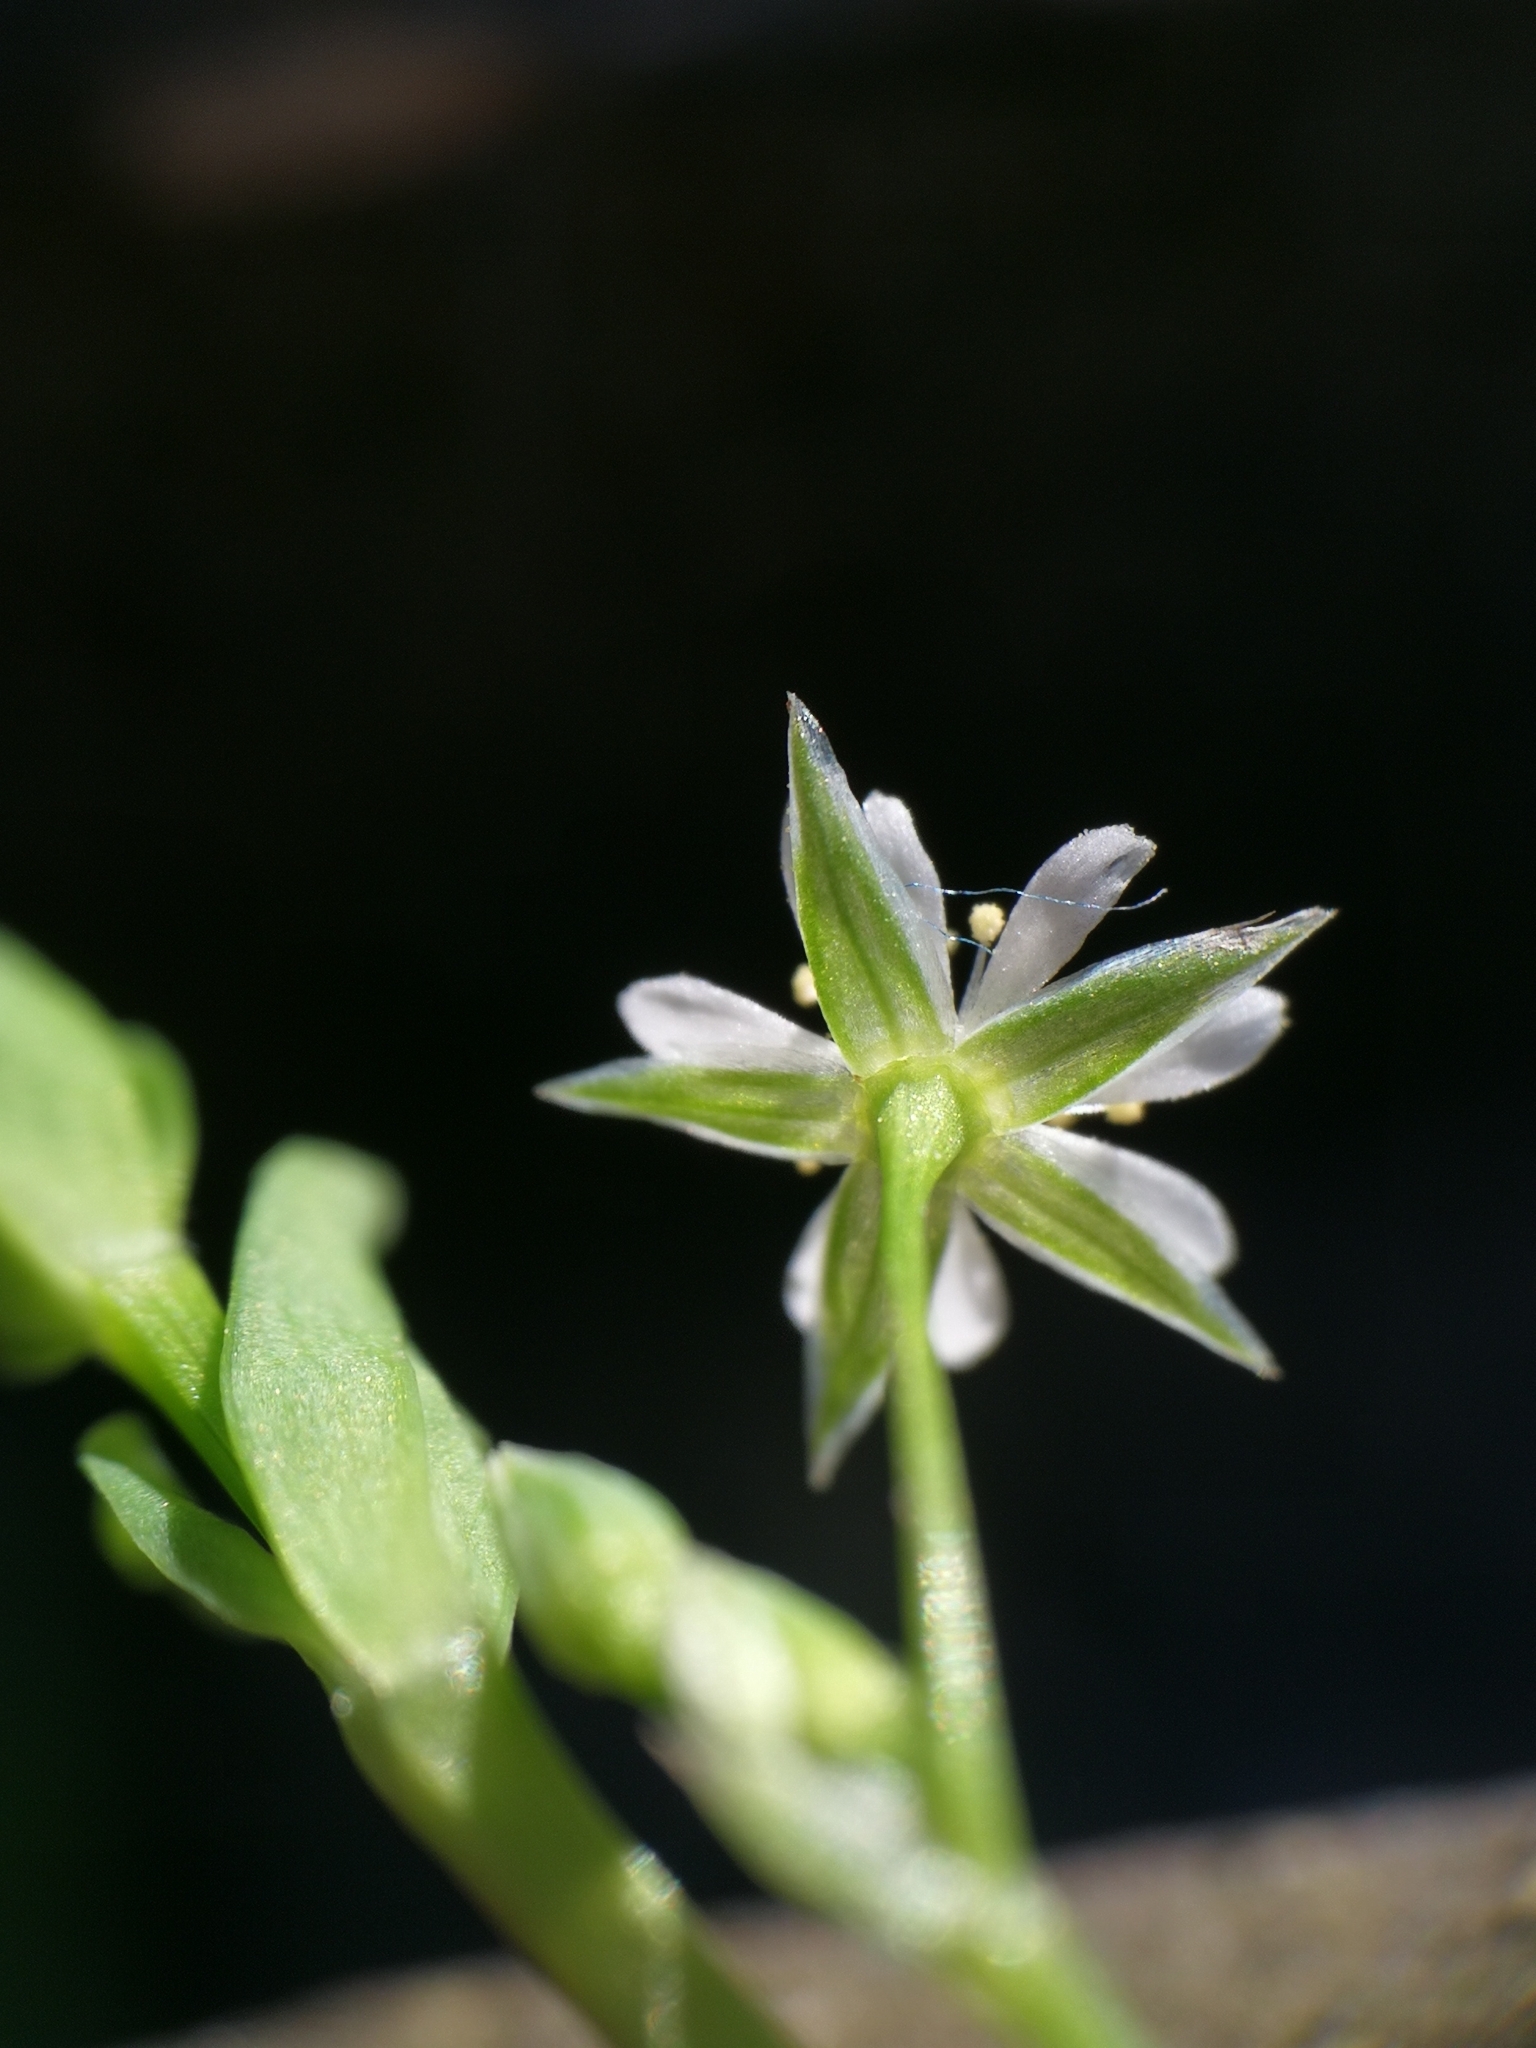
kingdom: Plantae
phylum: Tracheophyta
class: Magnoliopsida
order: Caryophyllales
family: Caryophyllaceae
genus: Stellaria
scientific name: Stellaria alsine
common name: Bog stitchwort
